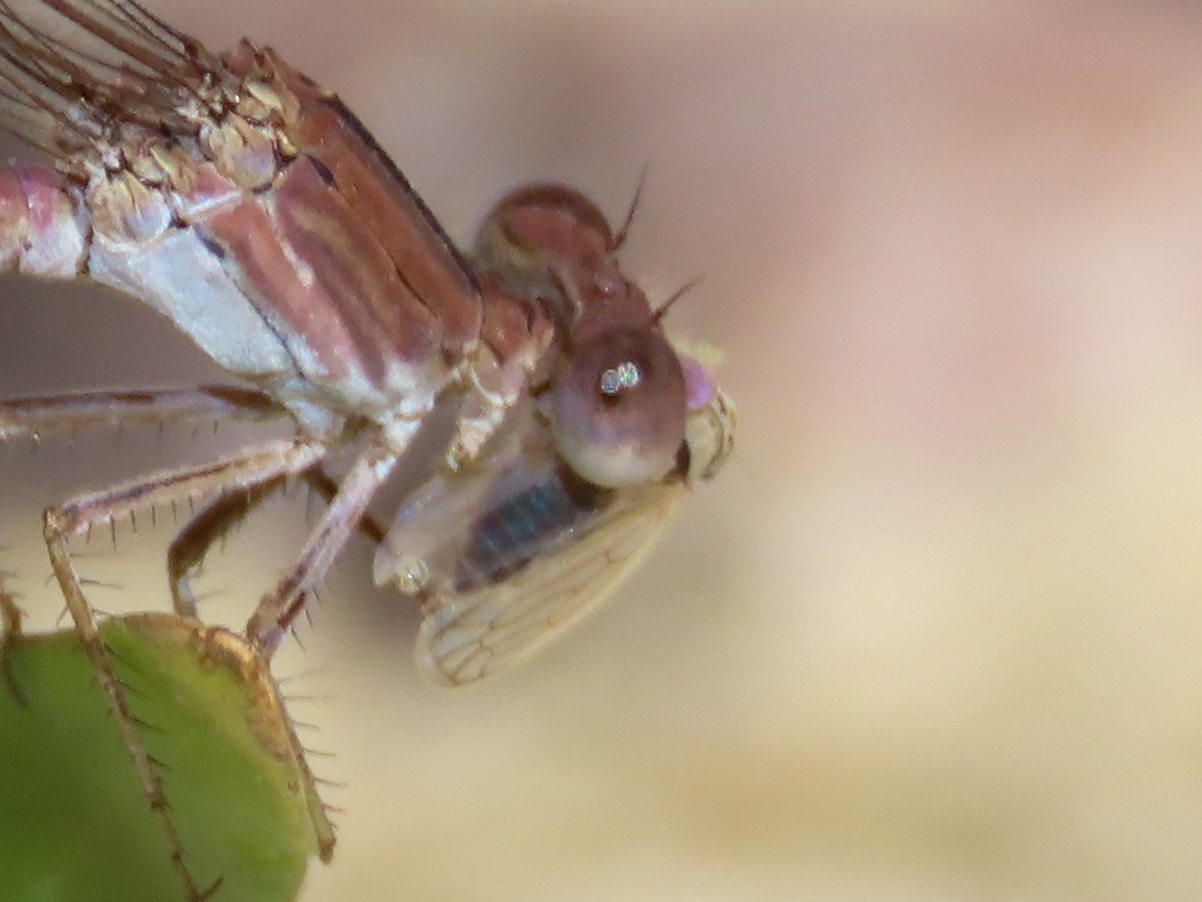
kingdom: Animalia
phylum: Arthropoda
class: Insecta
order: Odonata
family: Coenagrionidae
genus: Argia
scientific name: Argia pallens
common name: Amethyst dancer
